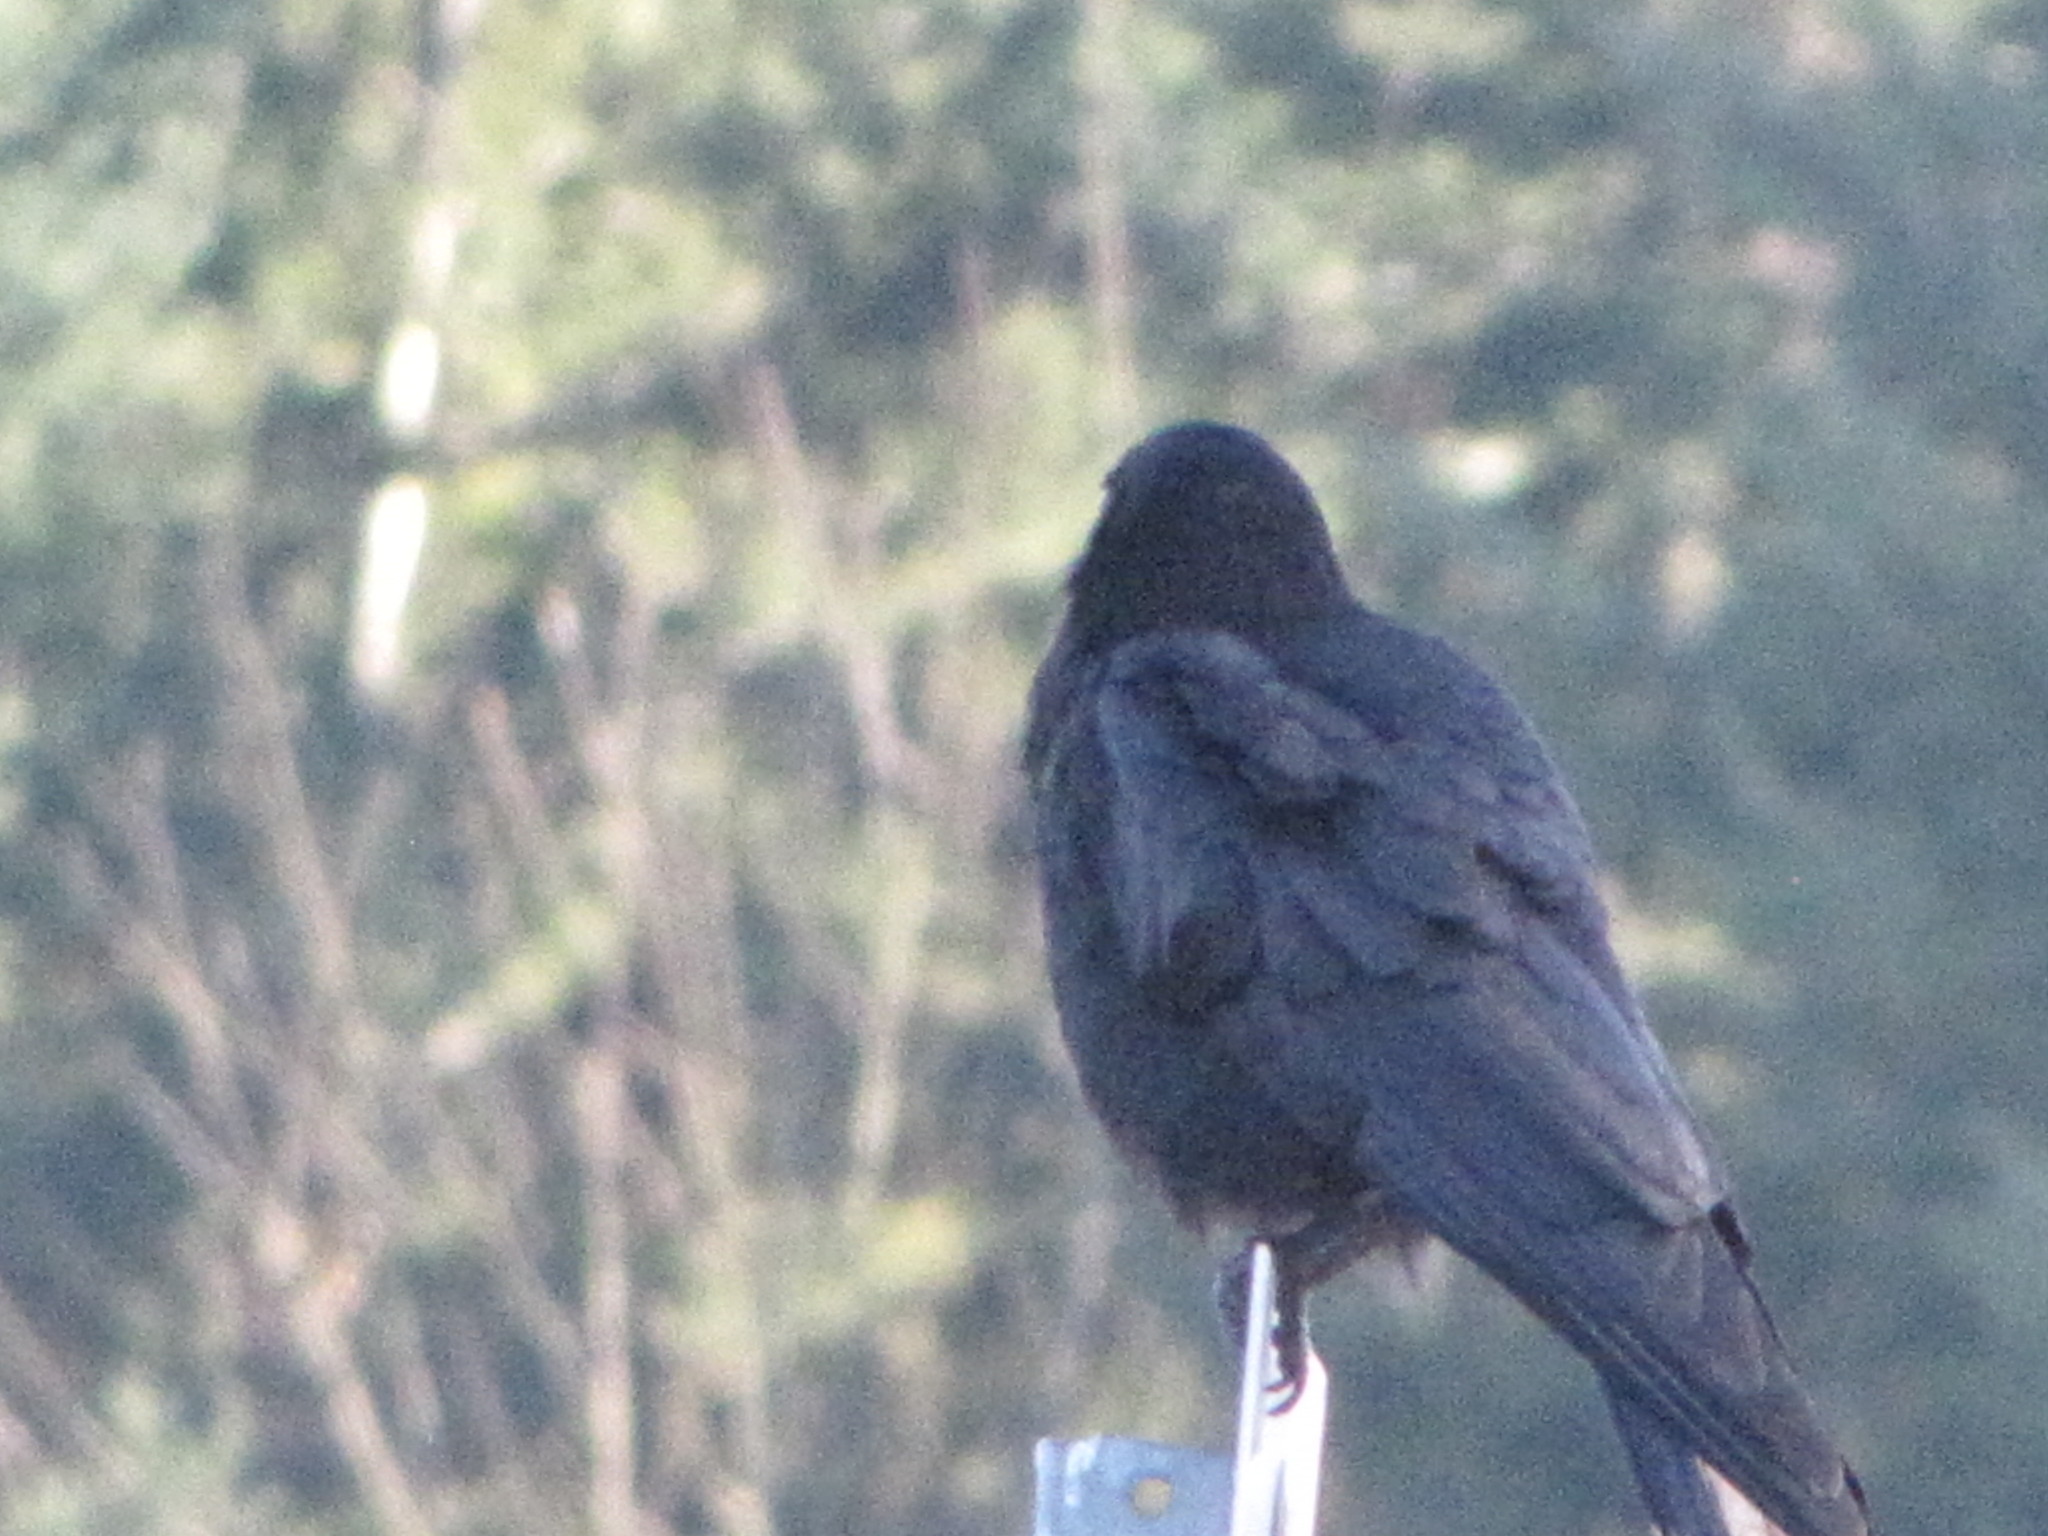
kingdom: Animalia
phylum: Chordata
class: Aves
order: Passeriformes
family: Corvidae
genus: Corvus
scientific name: Corvus corax
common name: Common raven
